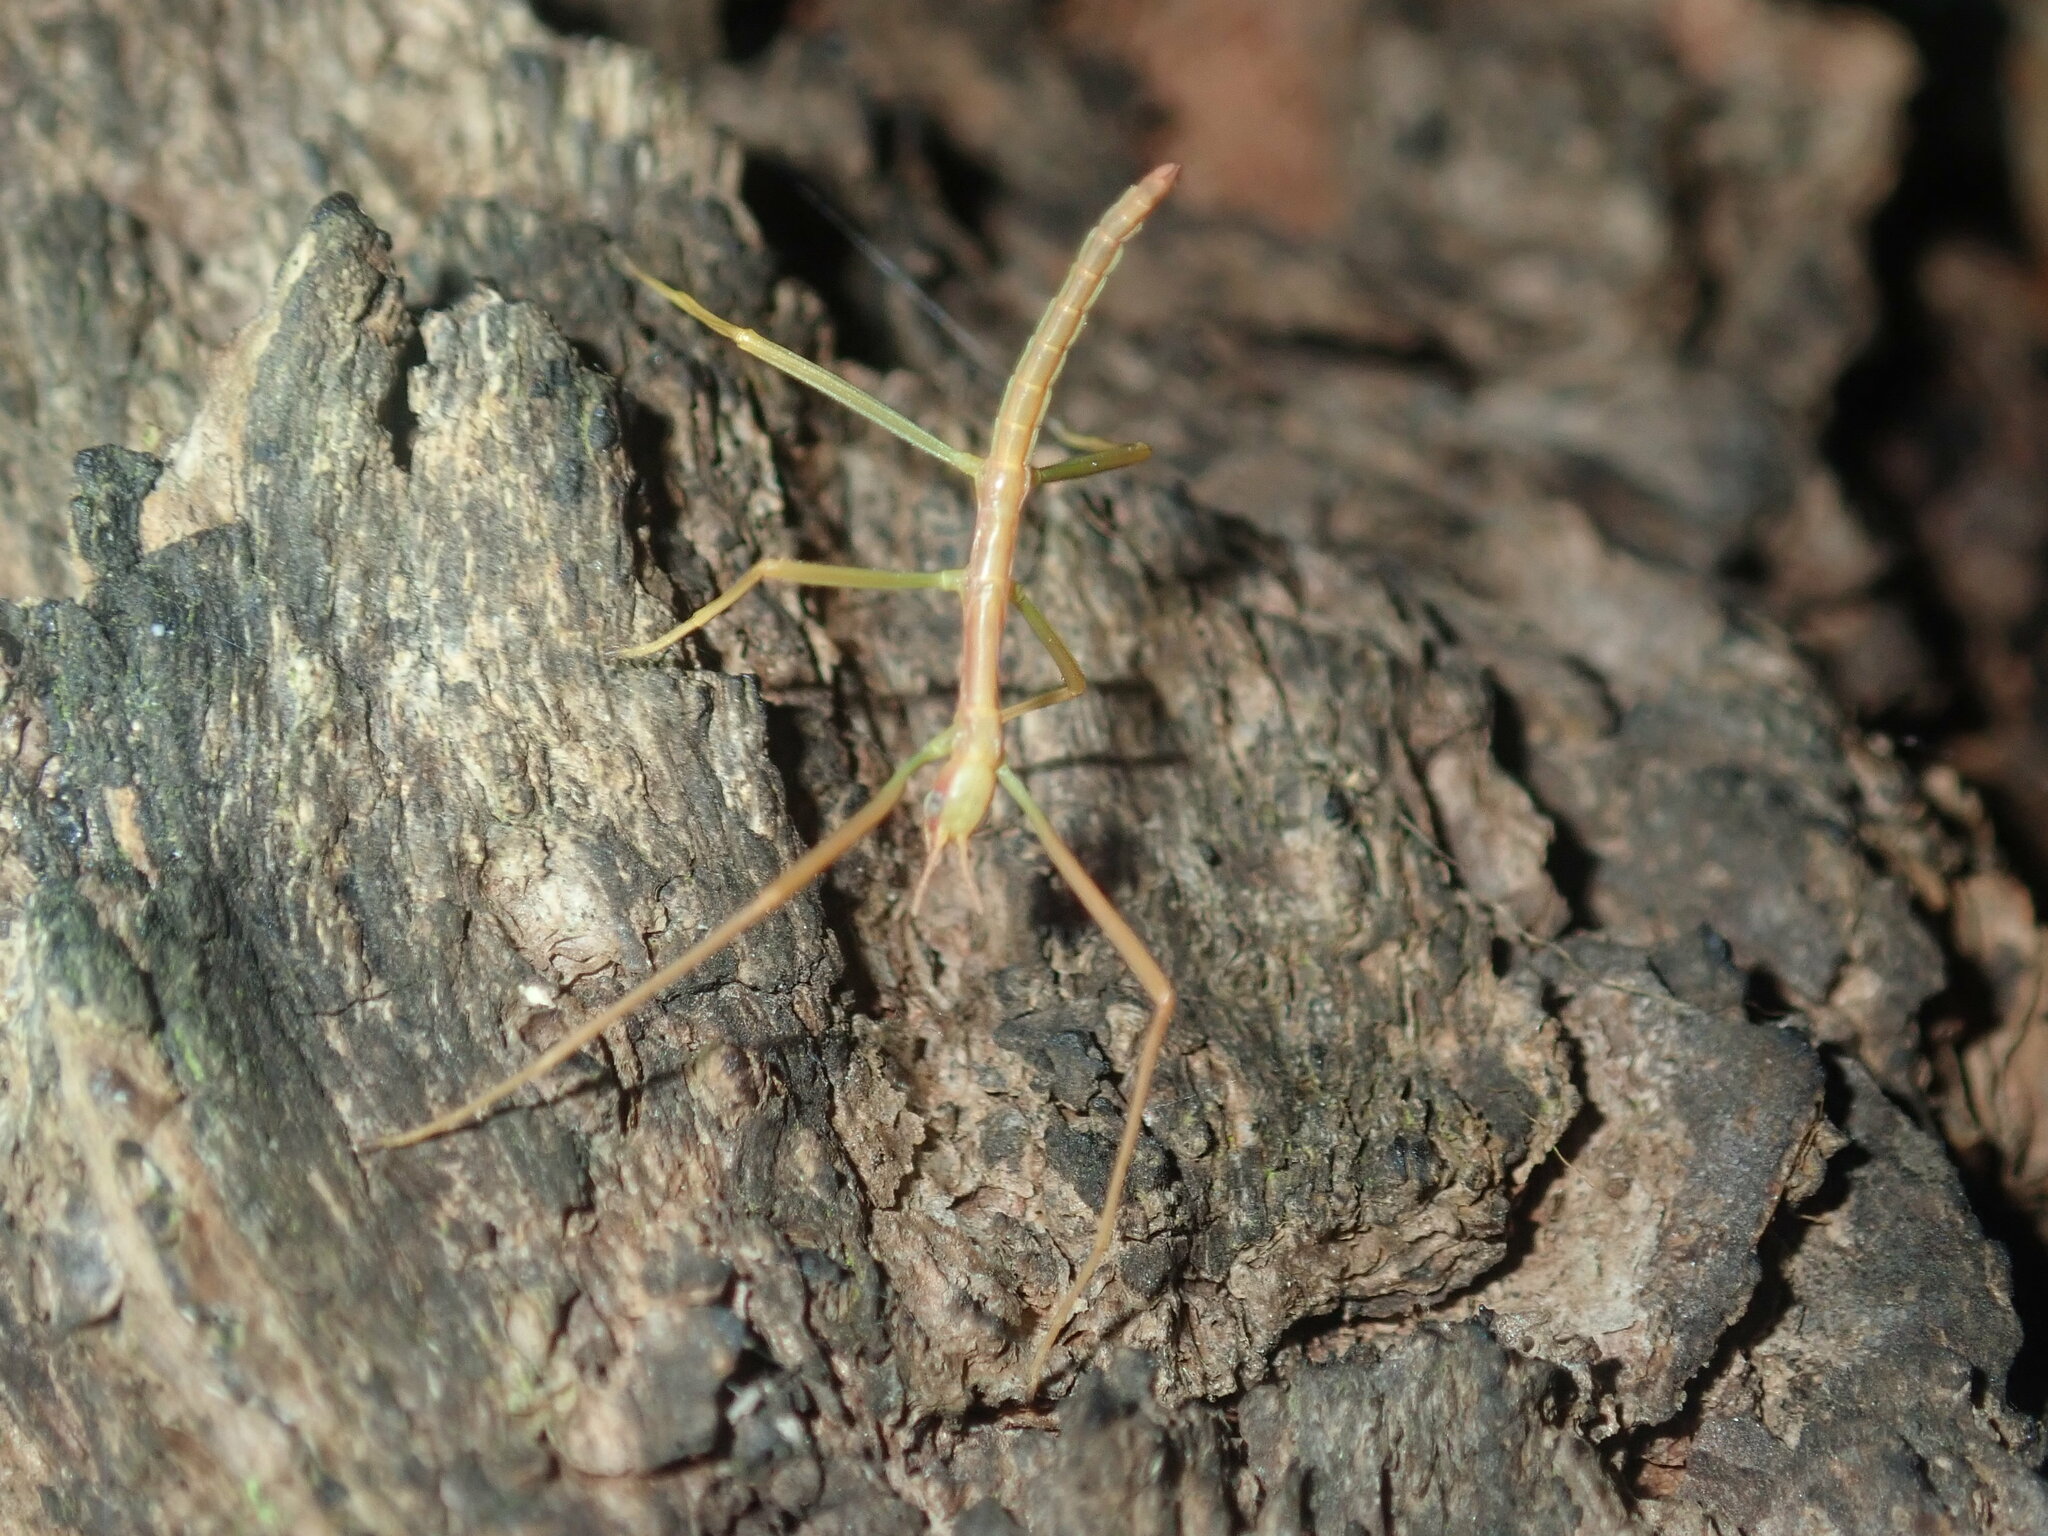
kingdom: Animalia
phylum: Arthropoda
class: Insecta
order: Phasmida
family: Phasmatidae
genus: Didymuria
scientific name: Didymuria violescens
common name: Spur-legged stick-insect
